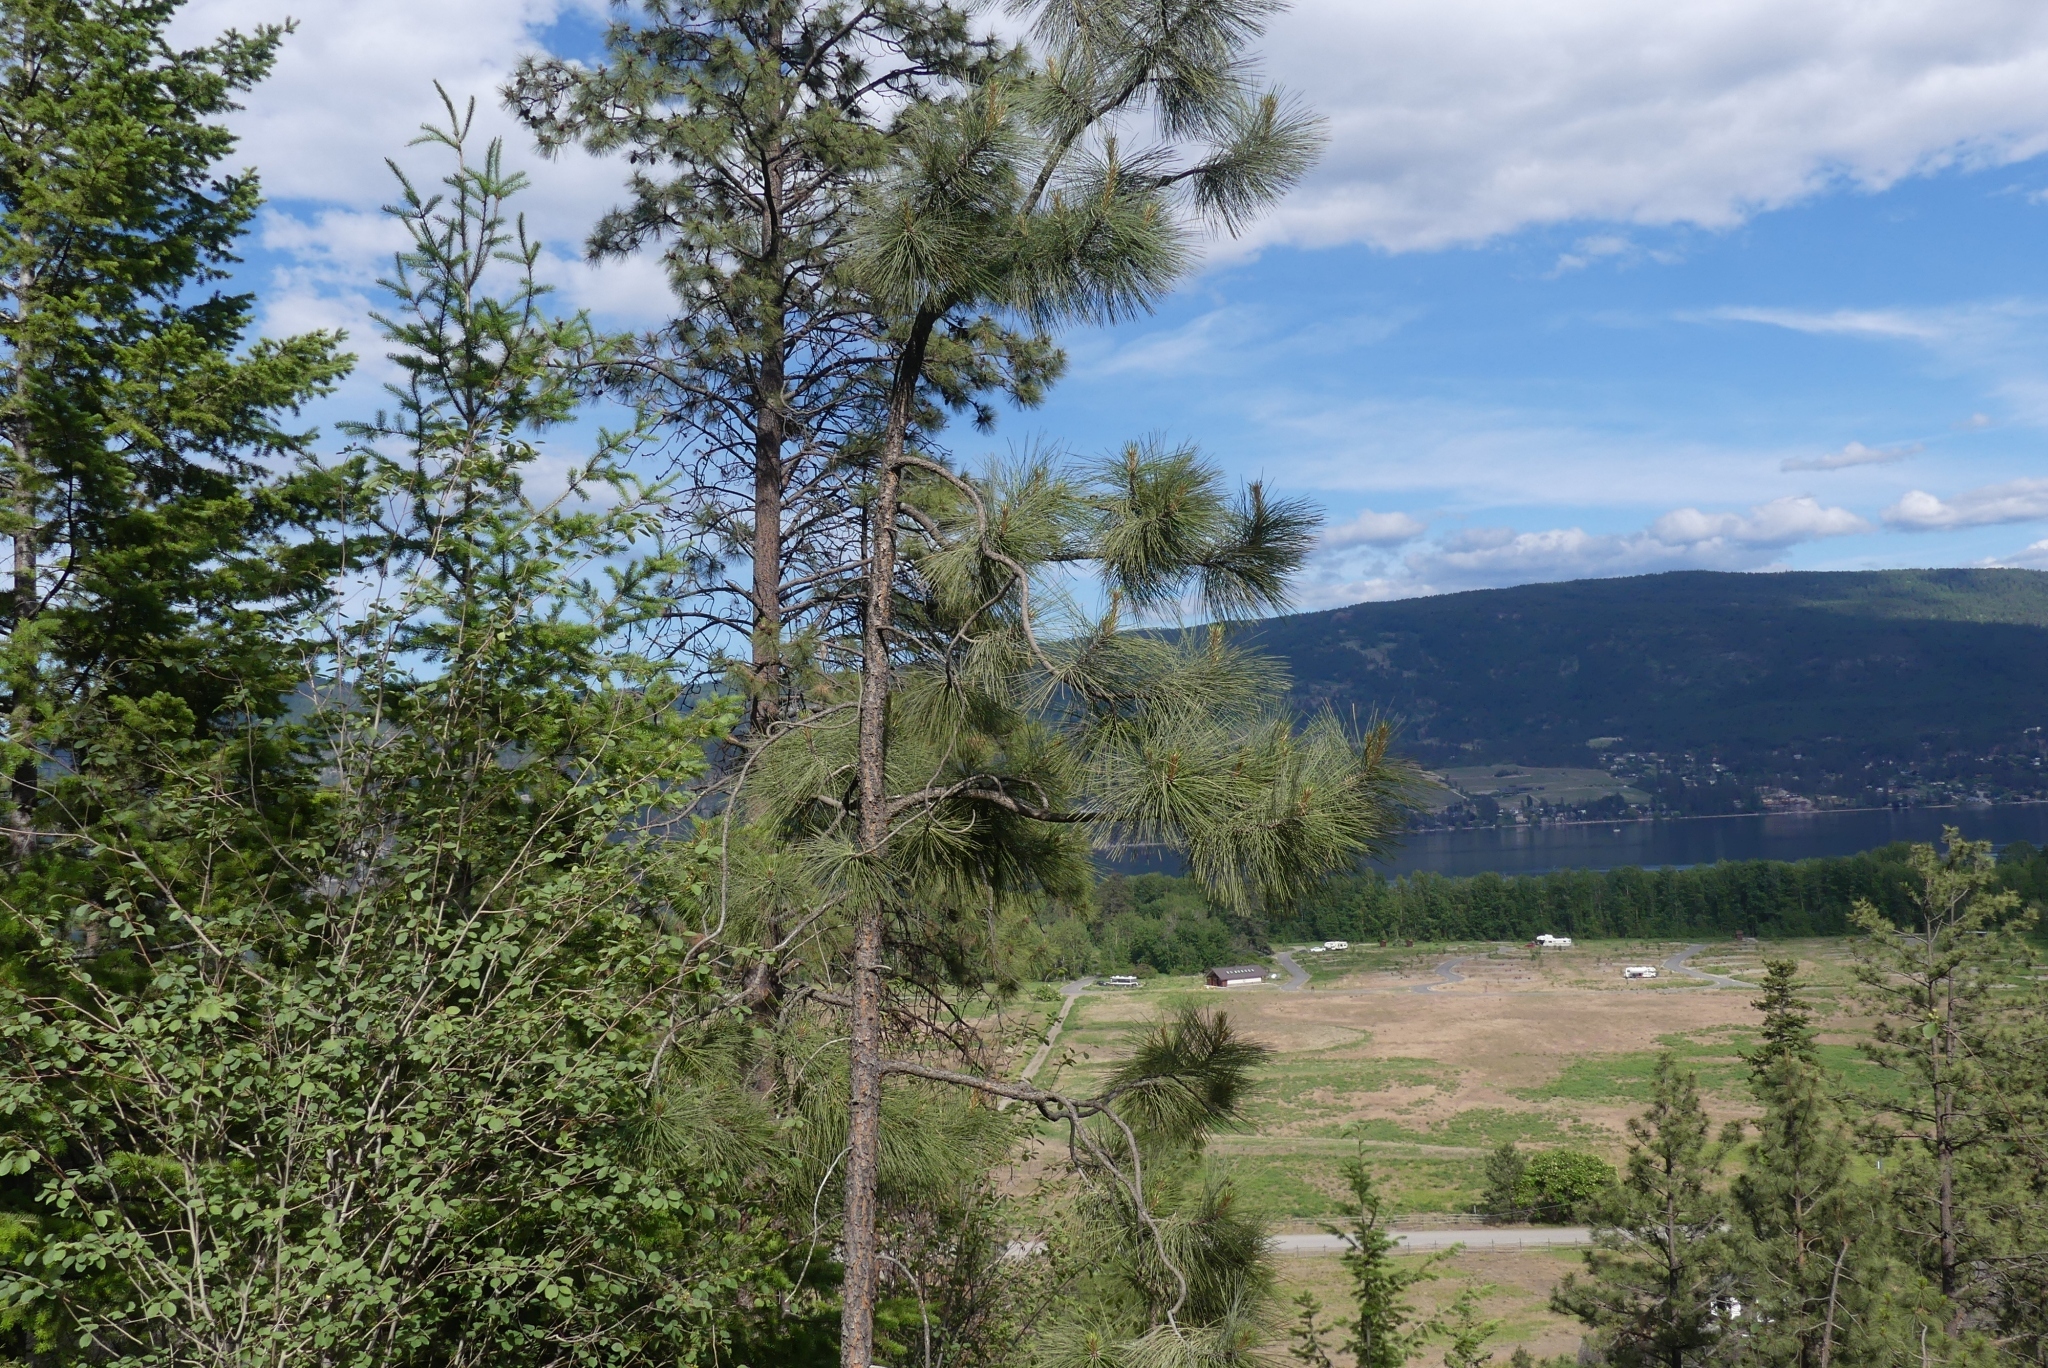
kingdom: Plantae
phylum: Tracheophyta
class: Pinopsida
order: Pinales
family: Pinaceae
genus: Pinus
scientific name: Pinus ponderosa
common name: Western yellow-pine
